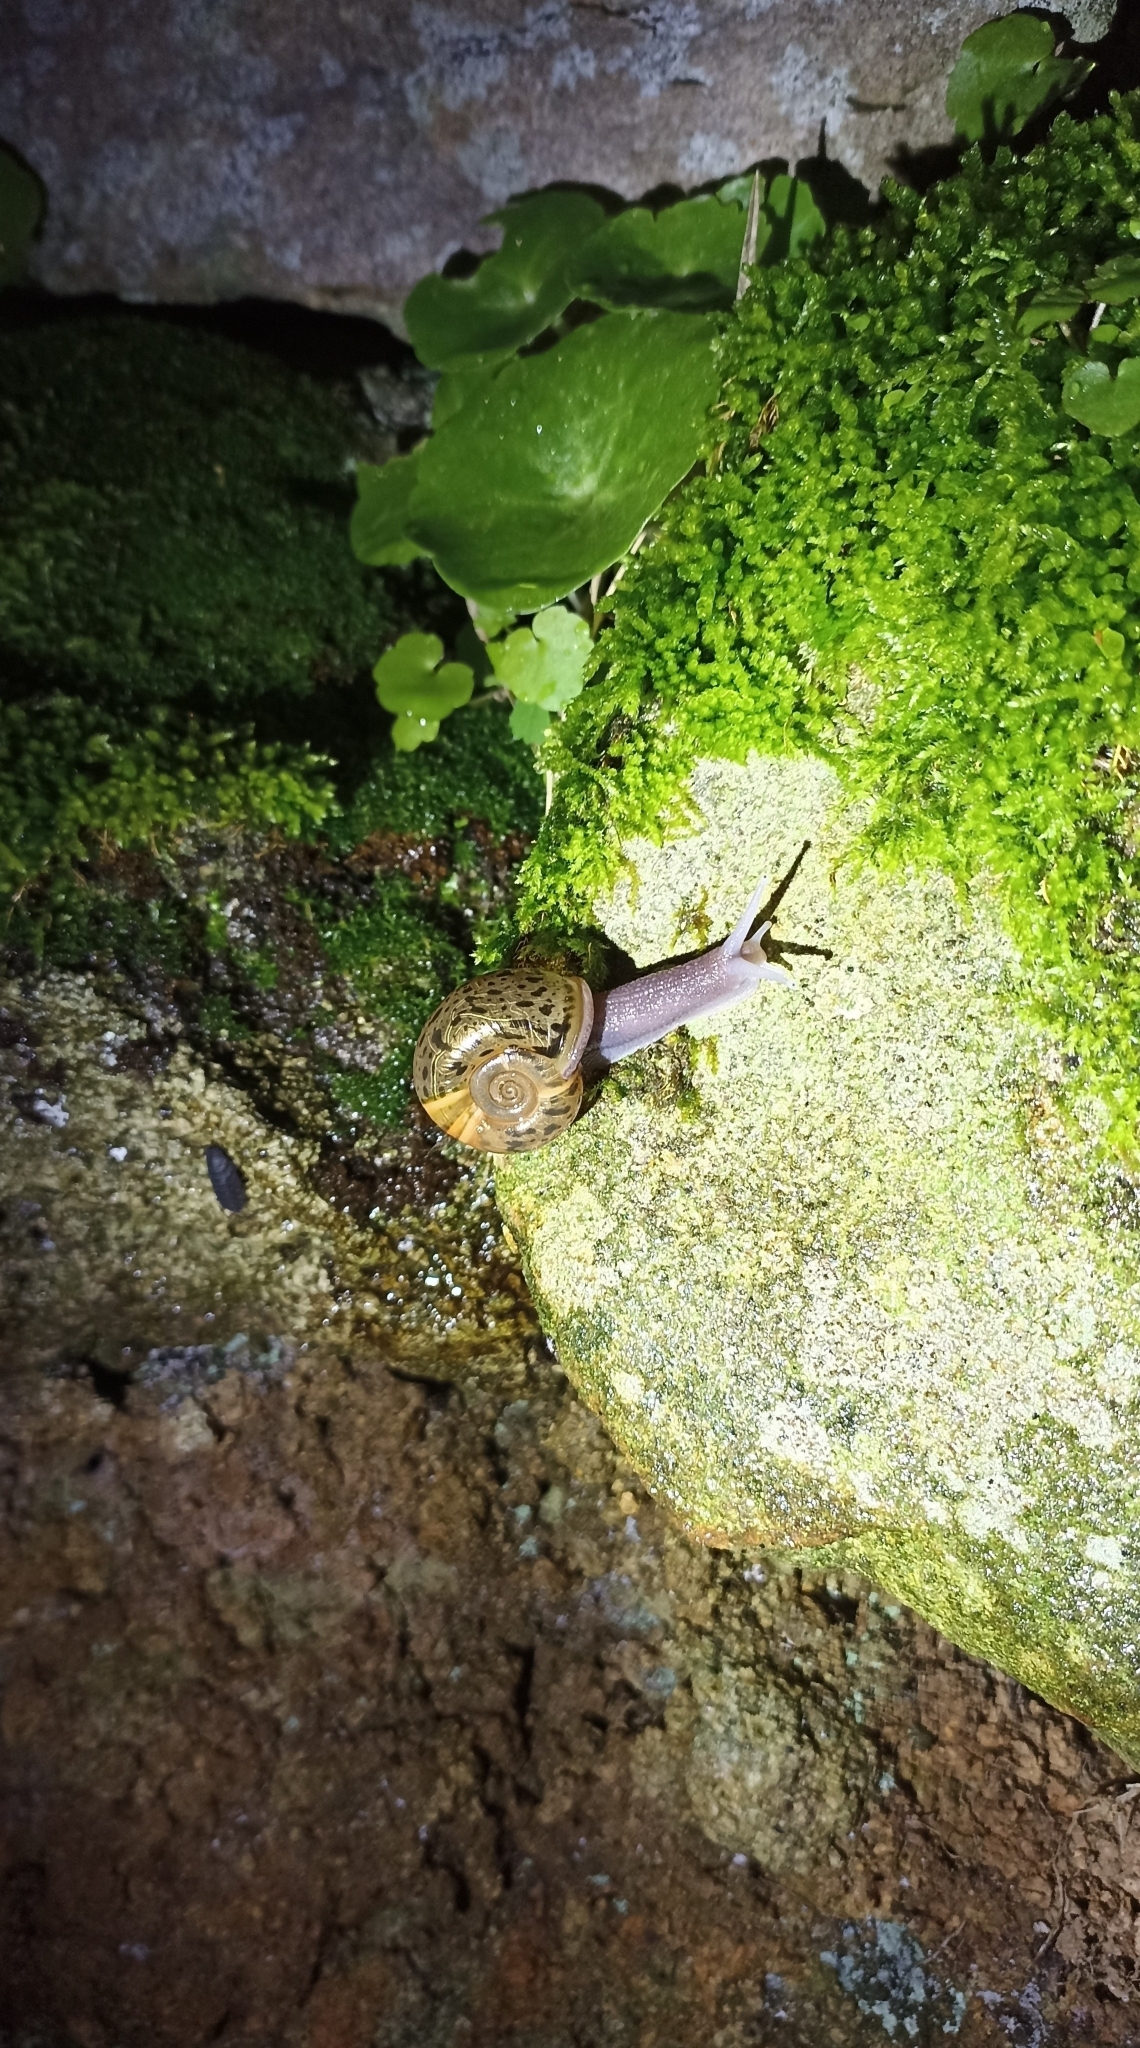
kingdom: Animalia
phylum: Mollusca
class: Gastropoda
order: Stylommatophora
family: Elonidae
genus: Elona
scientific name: Elona quimperiana
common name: Quimper snail
